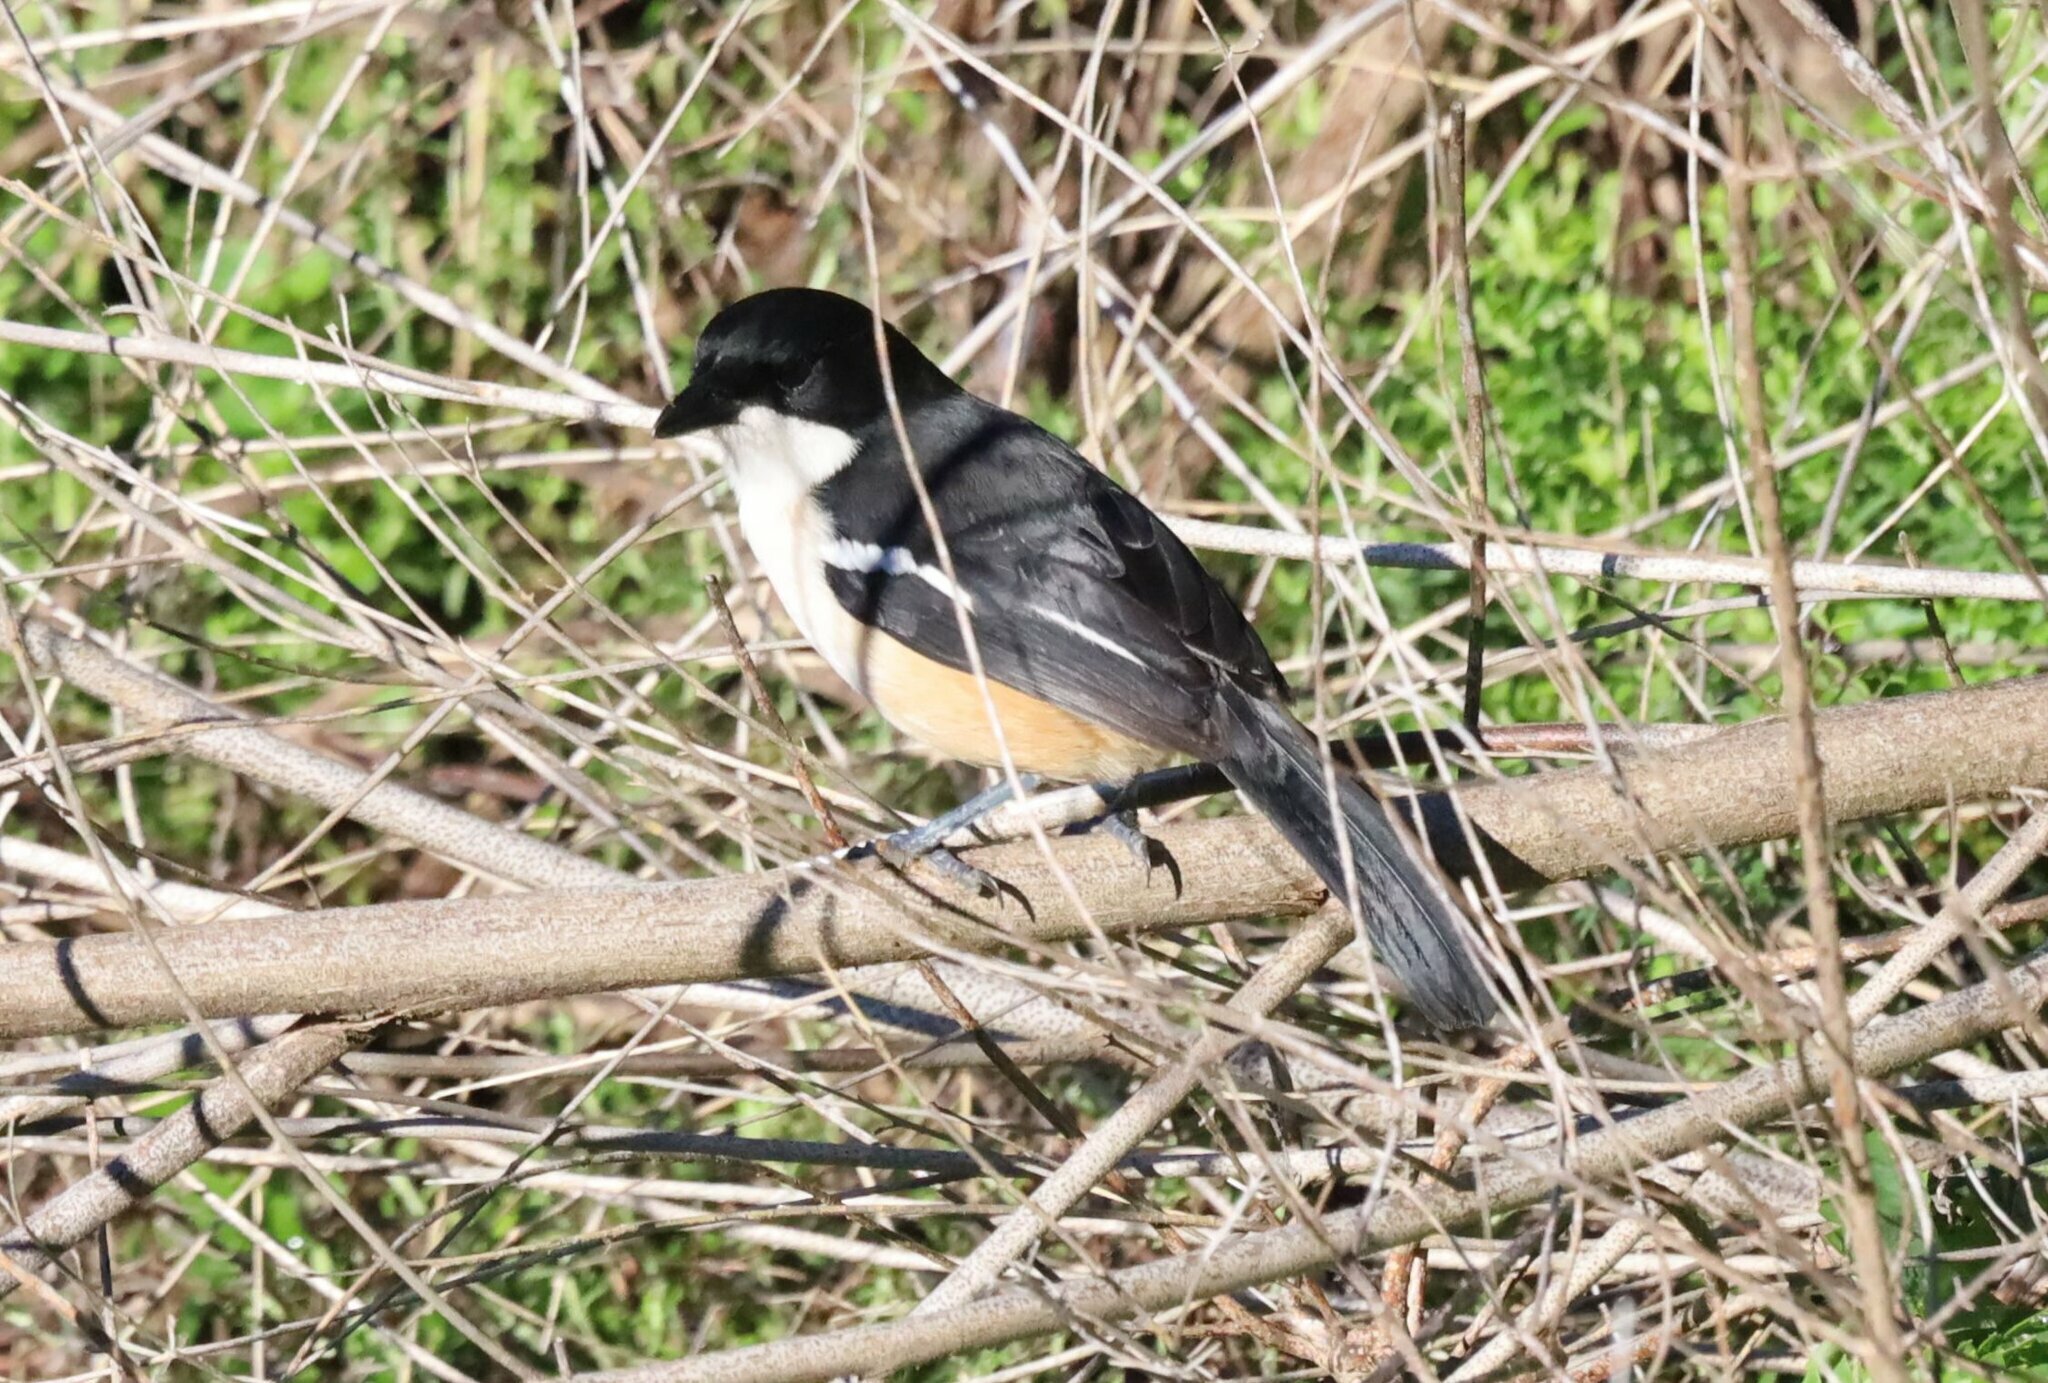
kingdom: Animalia
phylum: Chordata
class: Aves
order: Passeriformes
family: Malaconotidae
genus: Laniarius
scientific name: Laniarius ferrugineus
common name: Southern boubou
